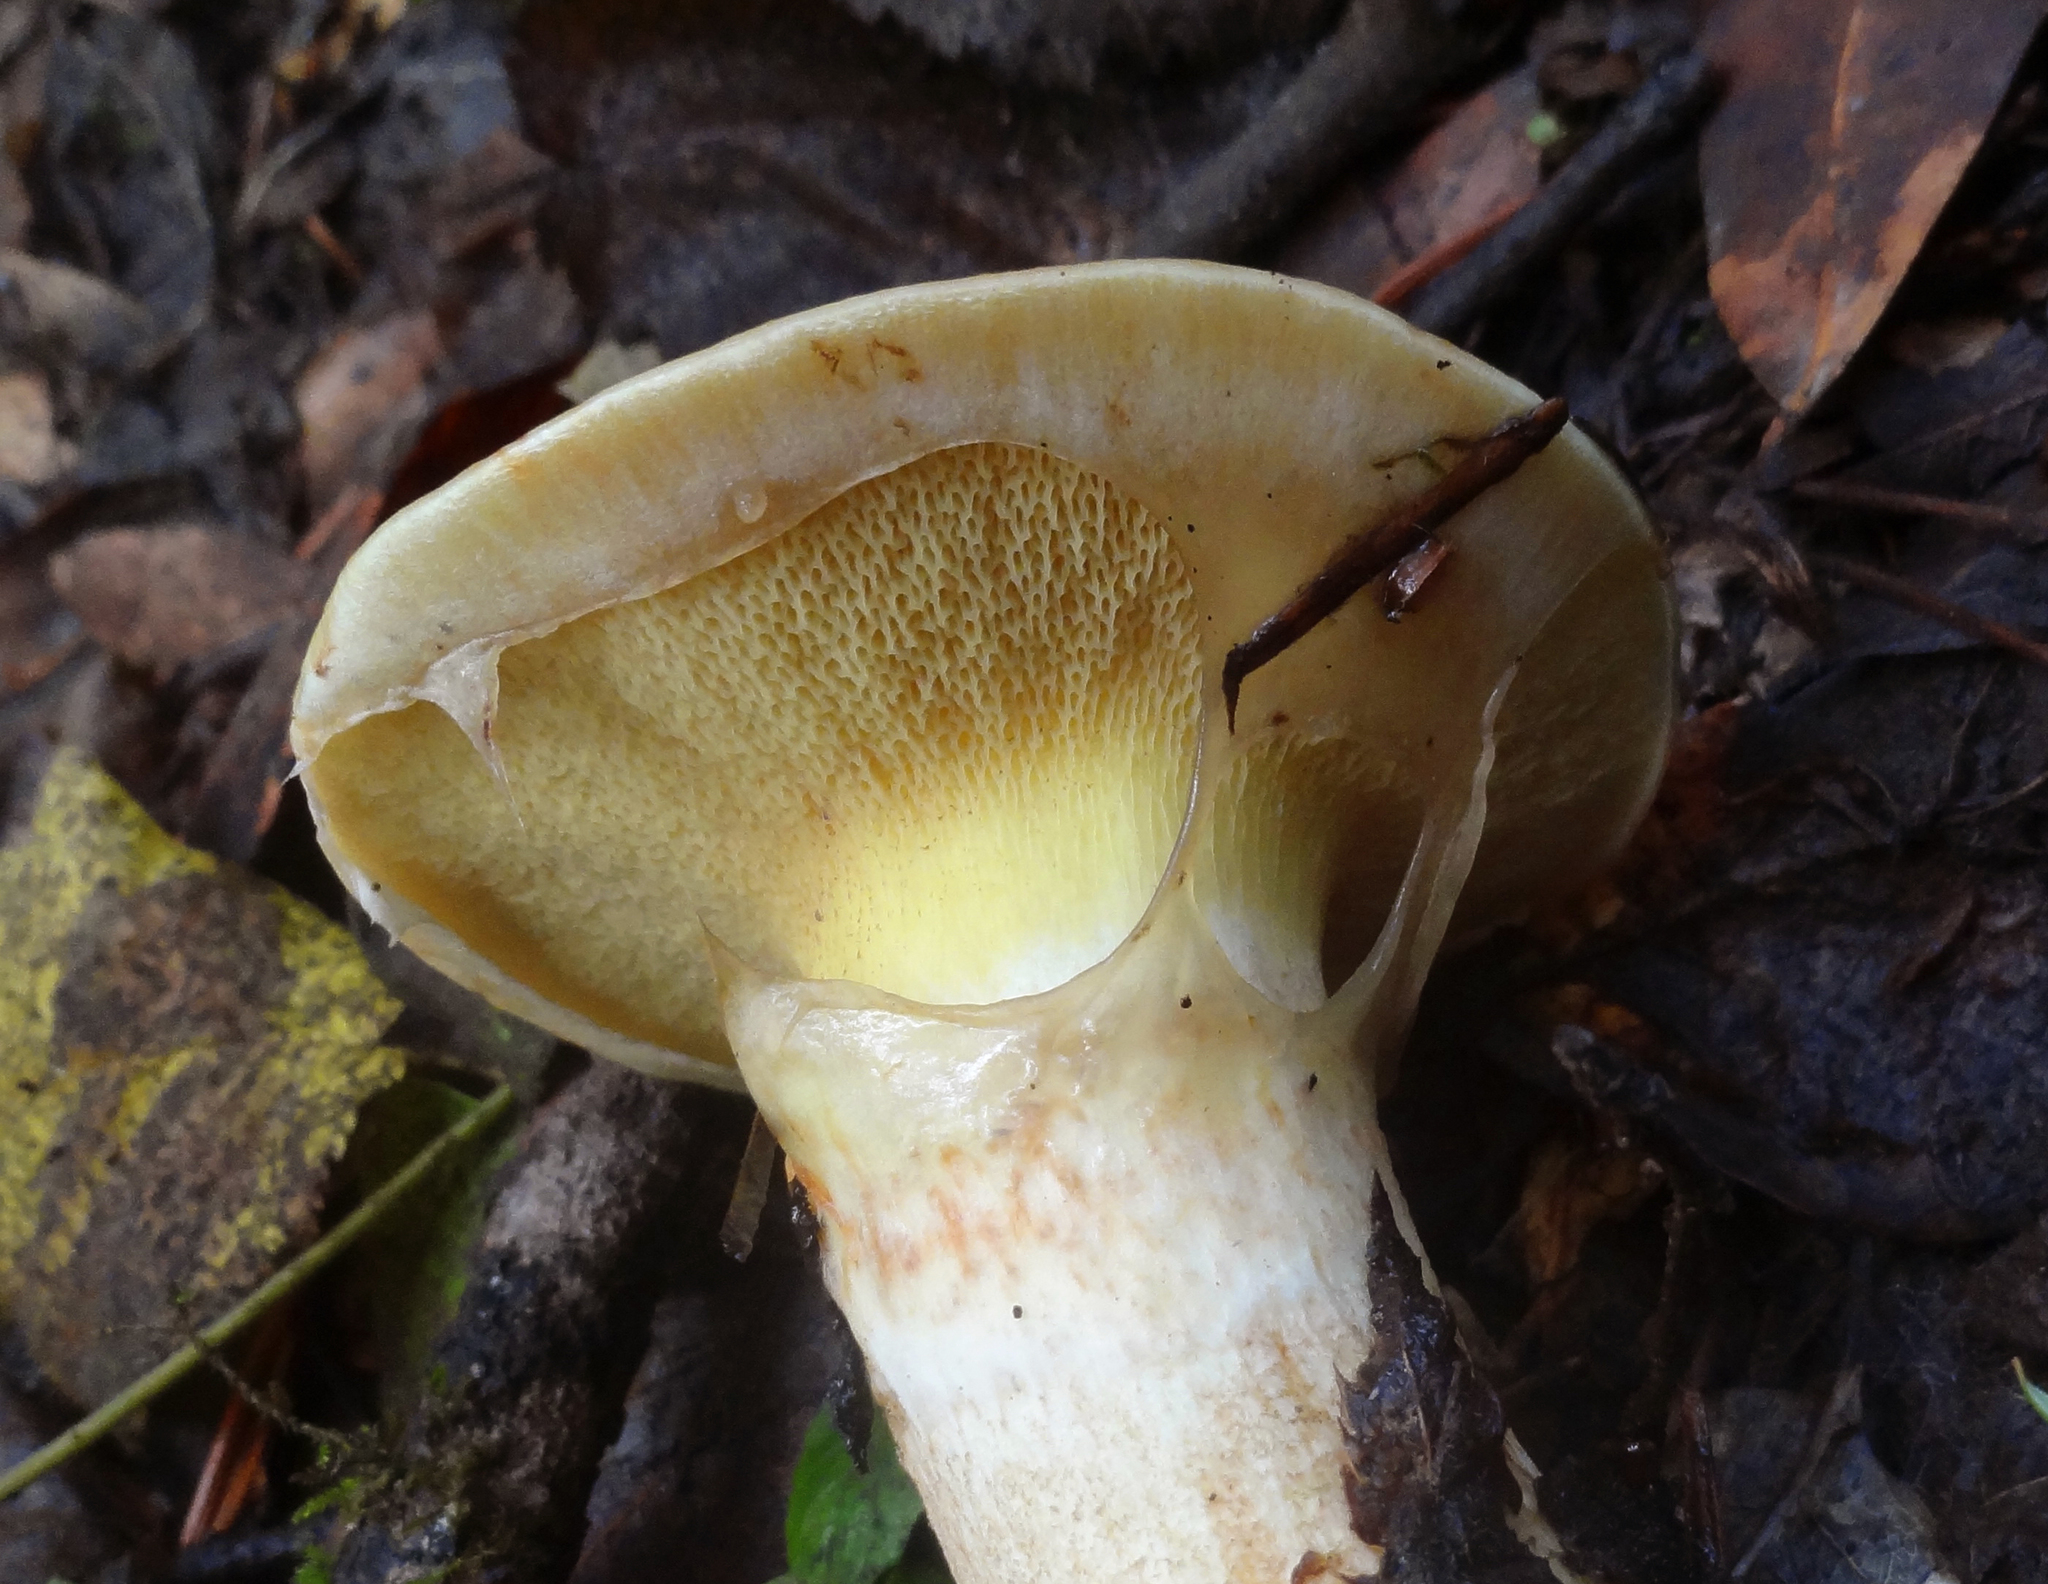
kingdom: Fungi
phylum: Basidiomycota
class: Agaricomycetes
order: Boletales
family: Suillaceae
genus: Suillus
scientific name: Suillus ponderosus
